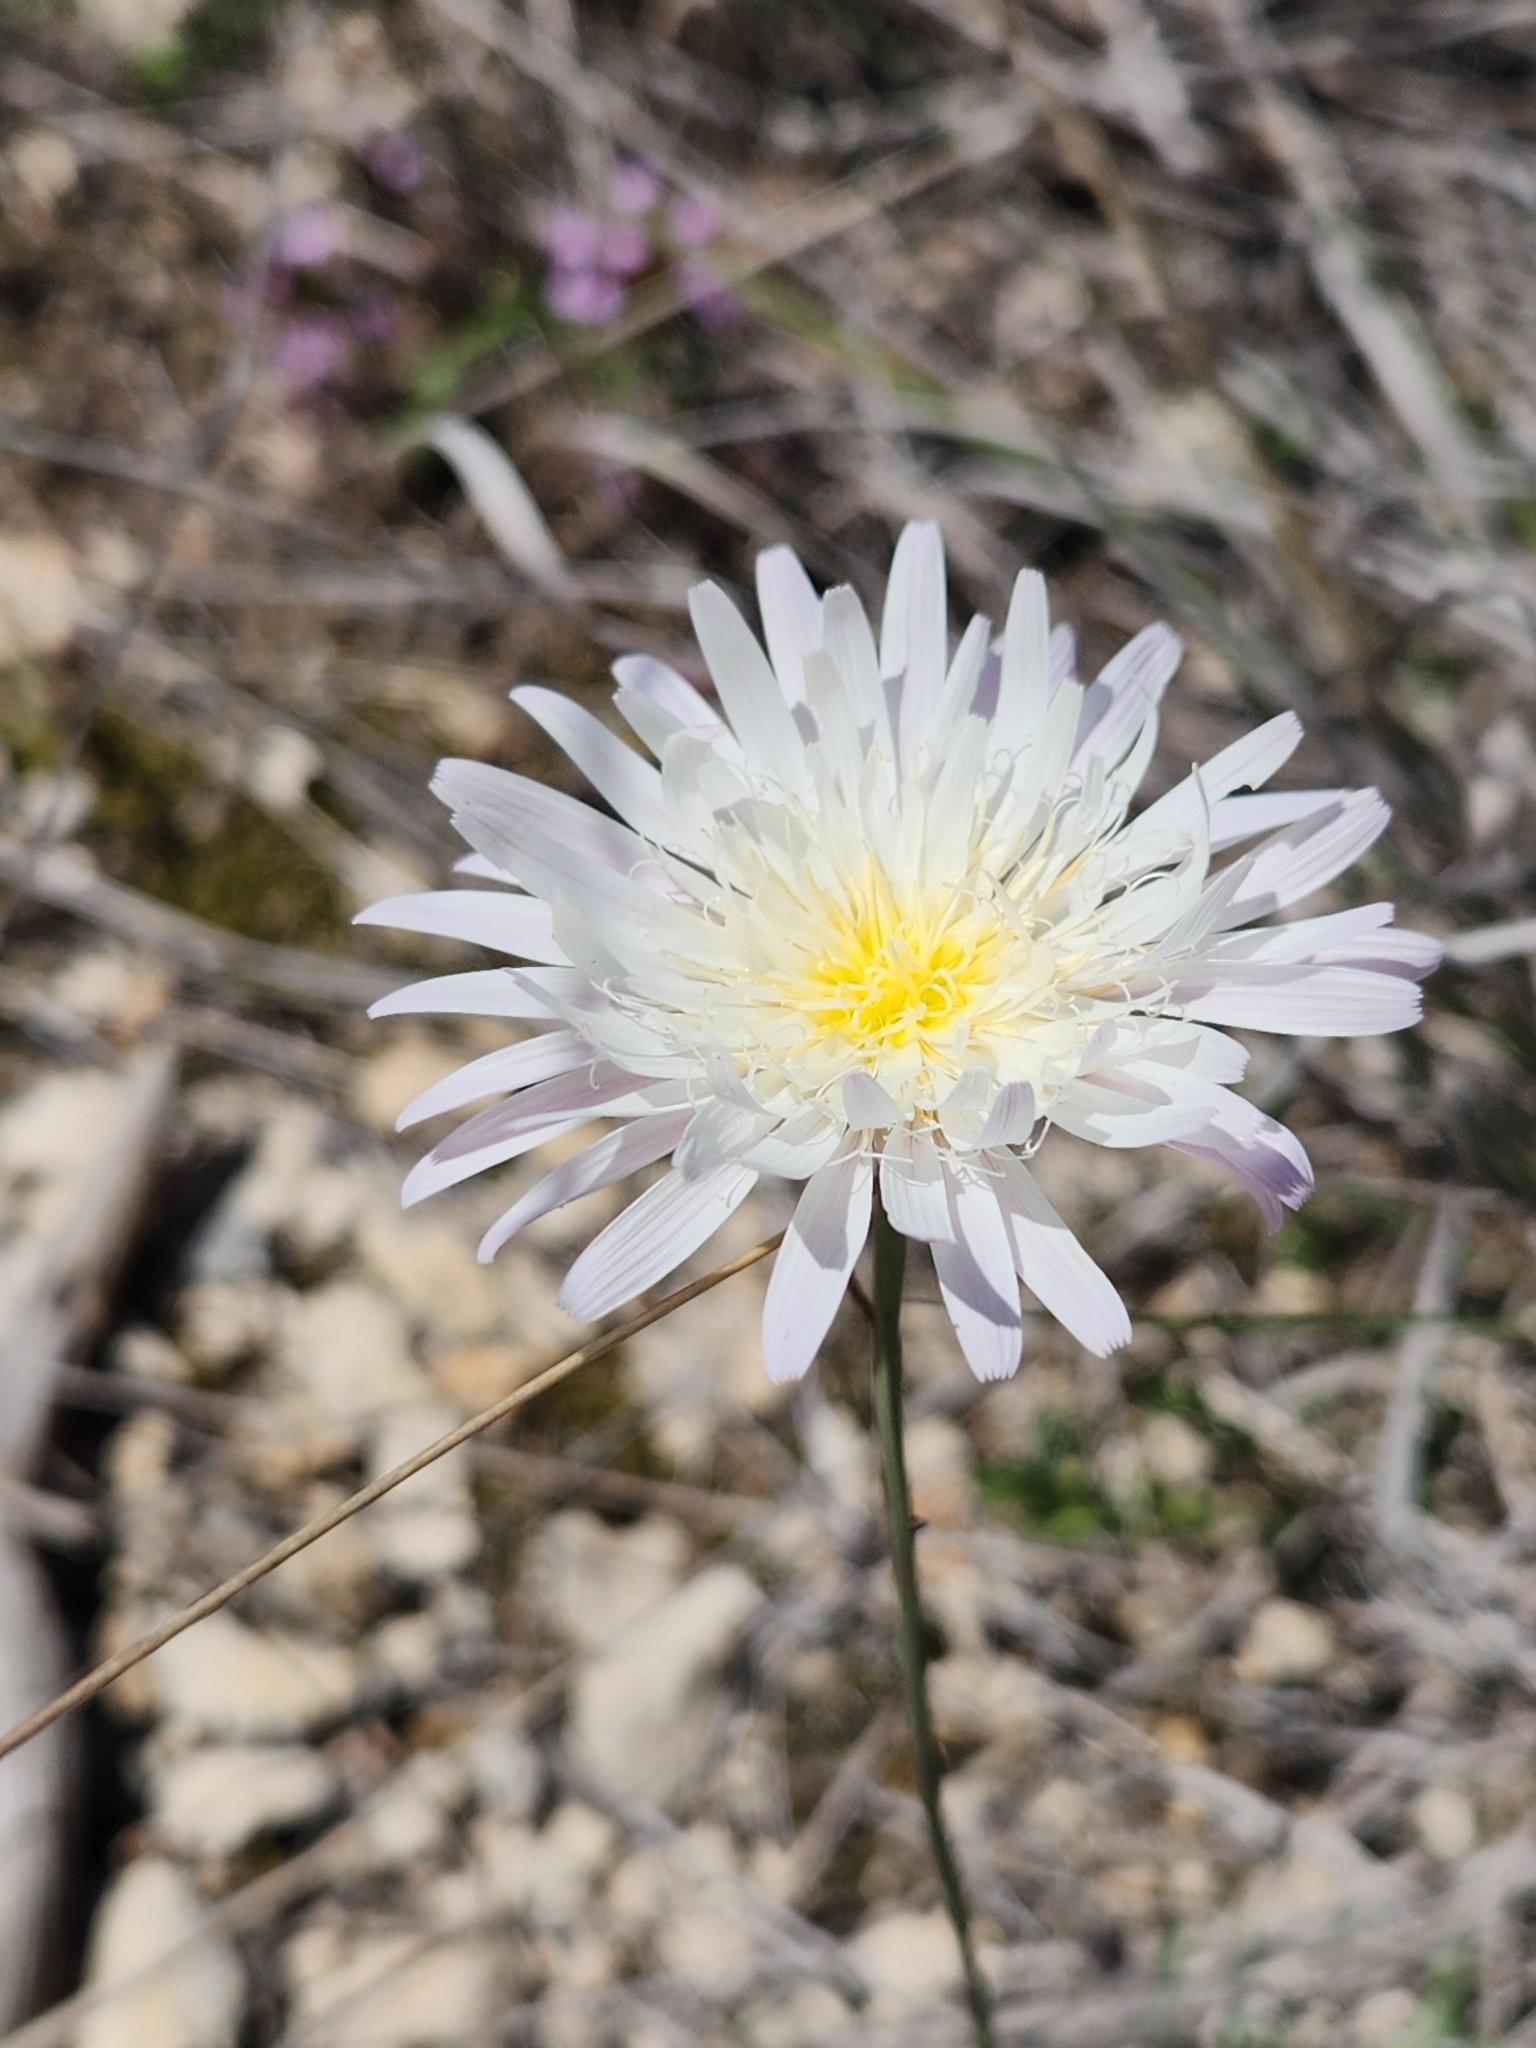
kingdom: Plantae
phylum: Tracheophyta
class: Magnoliopsida
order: Asterales
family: Asteraceae
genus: Pinaropappus
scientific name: Pinaropappus roseus
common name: Rock-lettuce
